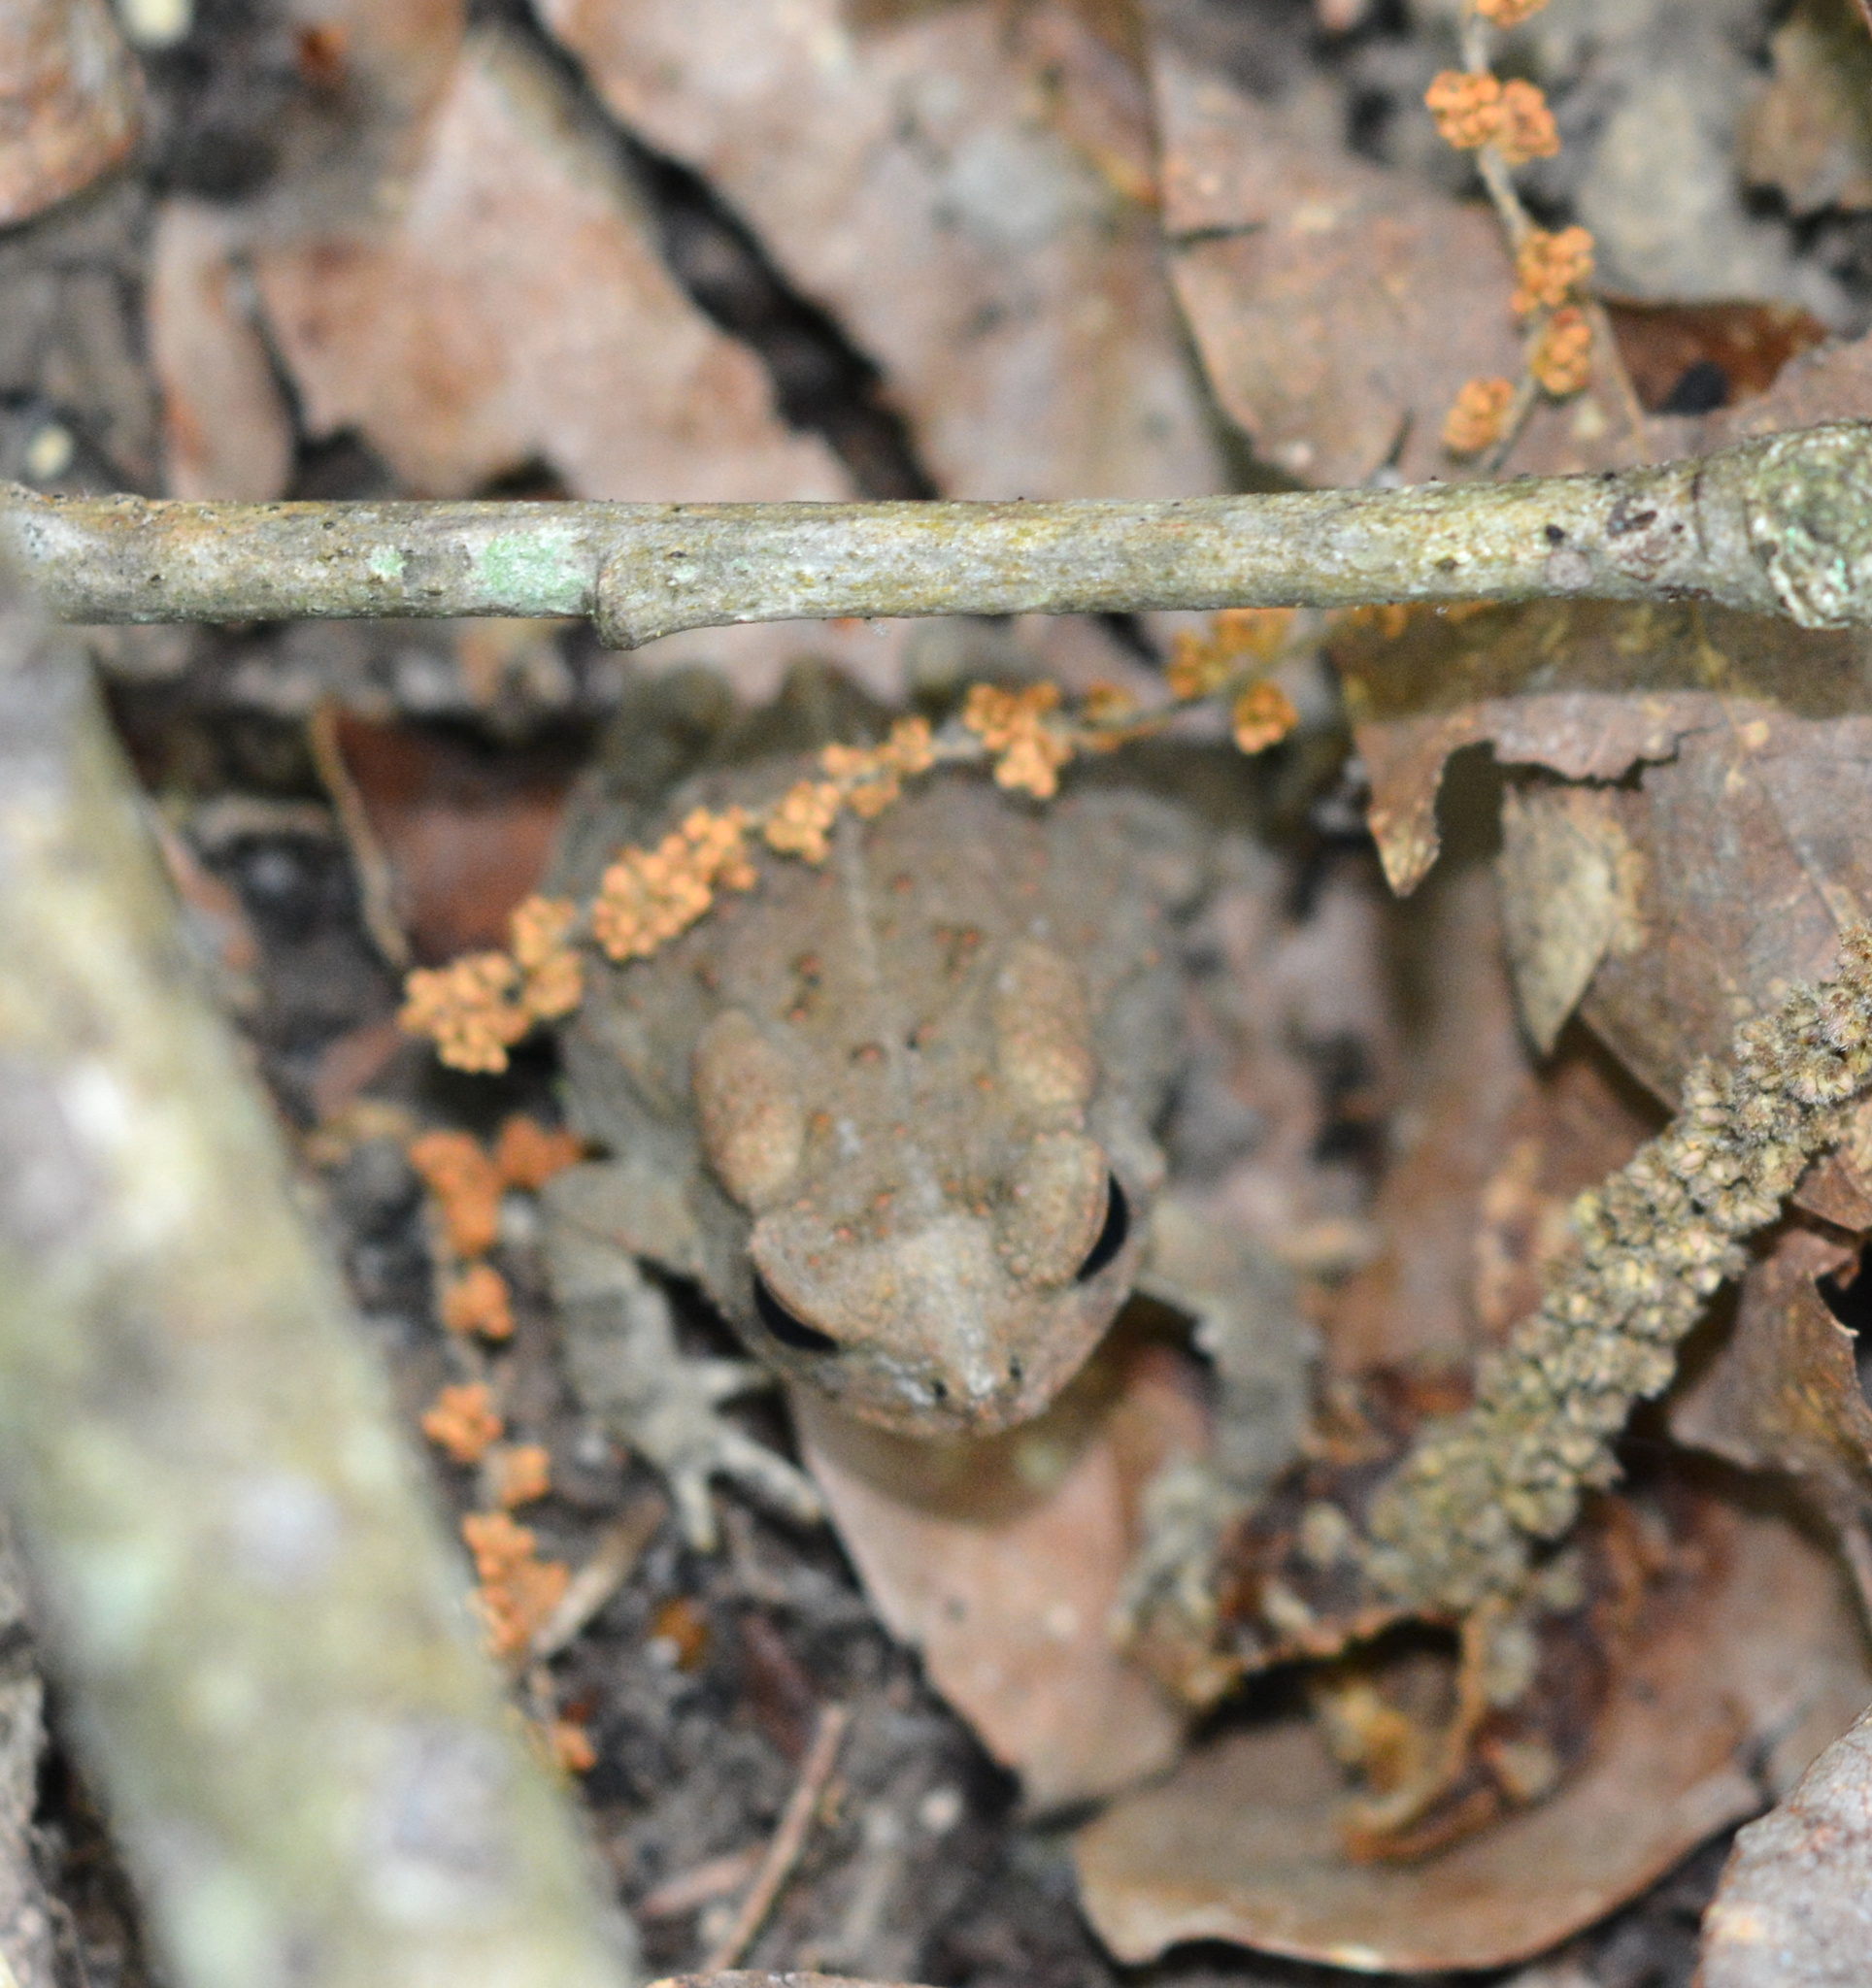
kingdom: Animalia
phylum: Chordata
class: Amphibia
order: Anura
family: Bufonidae
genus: Anaxyrus
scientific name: Anaxyrus fowleri
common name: Fowler's toad
